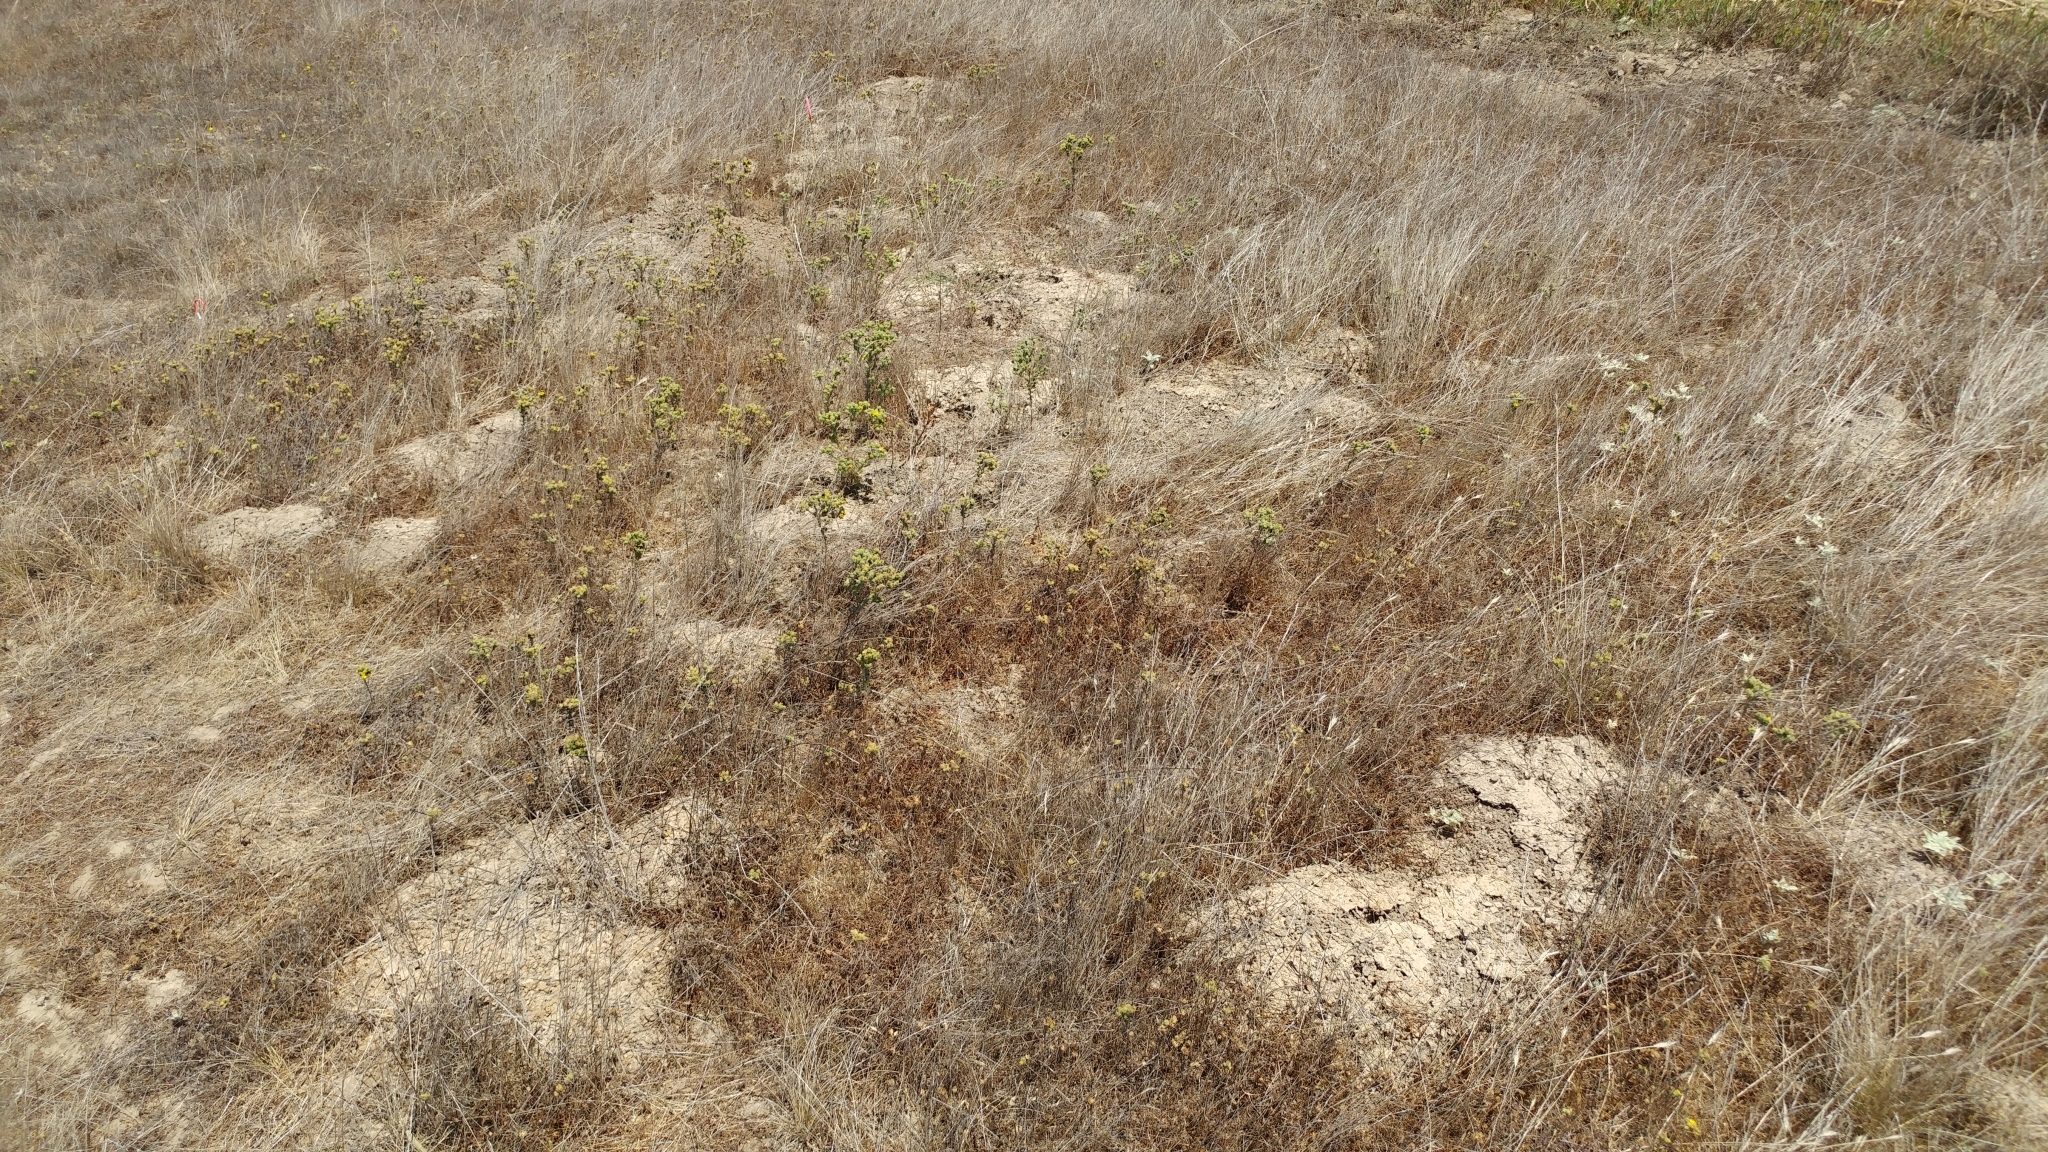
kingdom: Plantae
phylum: Tracheophyta
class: Magnoliopsida
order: Asterales
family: Asteraceae
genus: Deinandra
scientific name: Deinandra increscens
